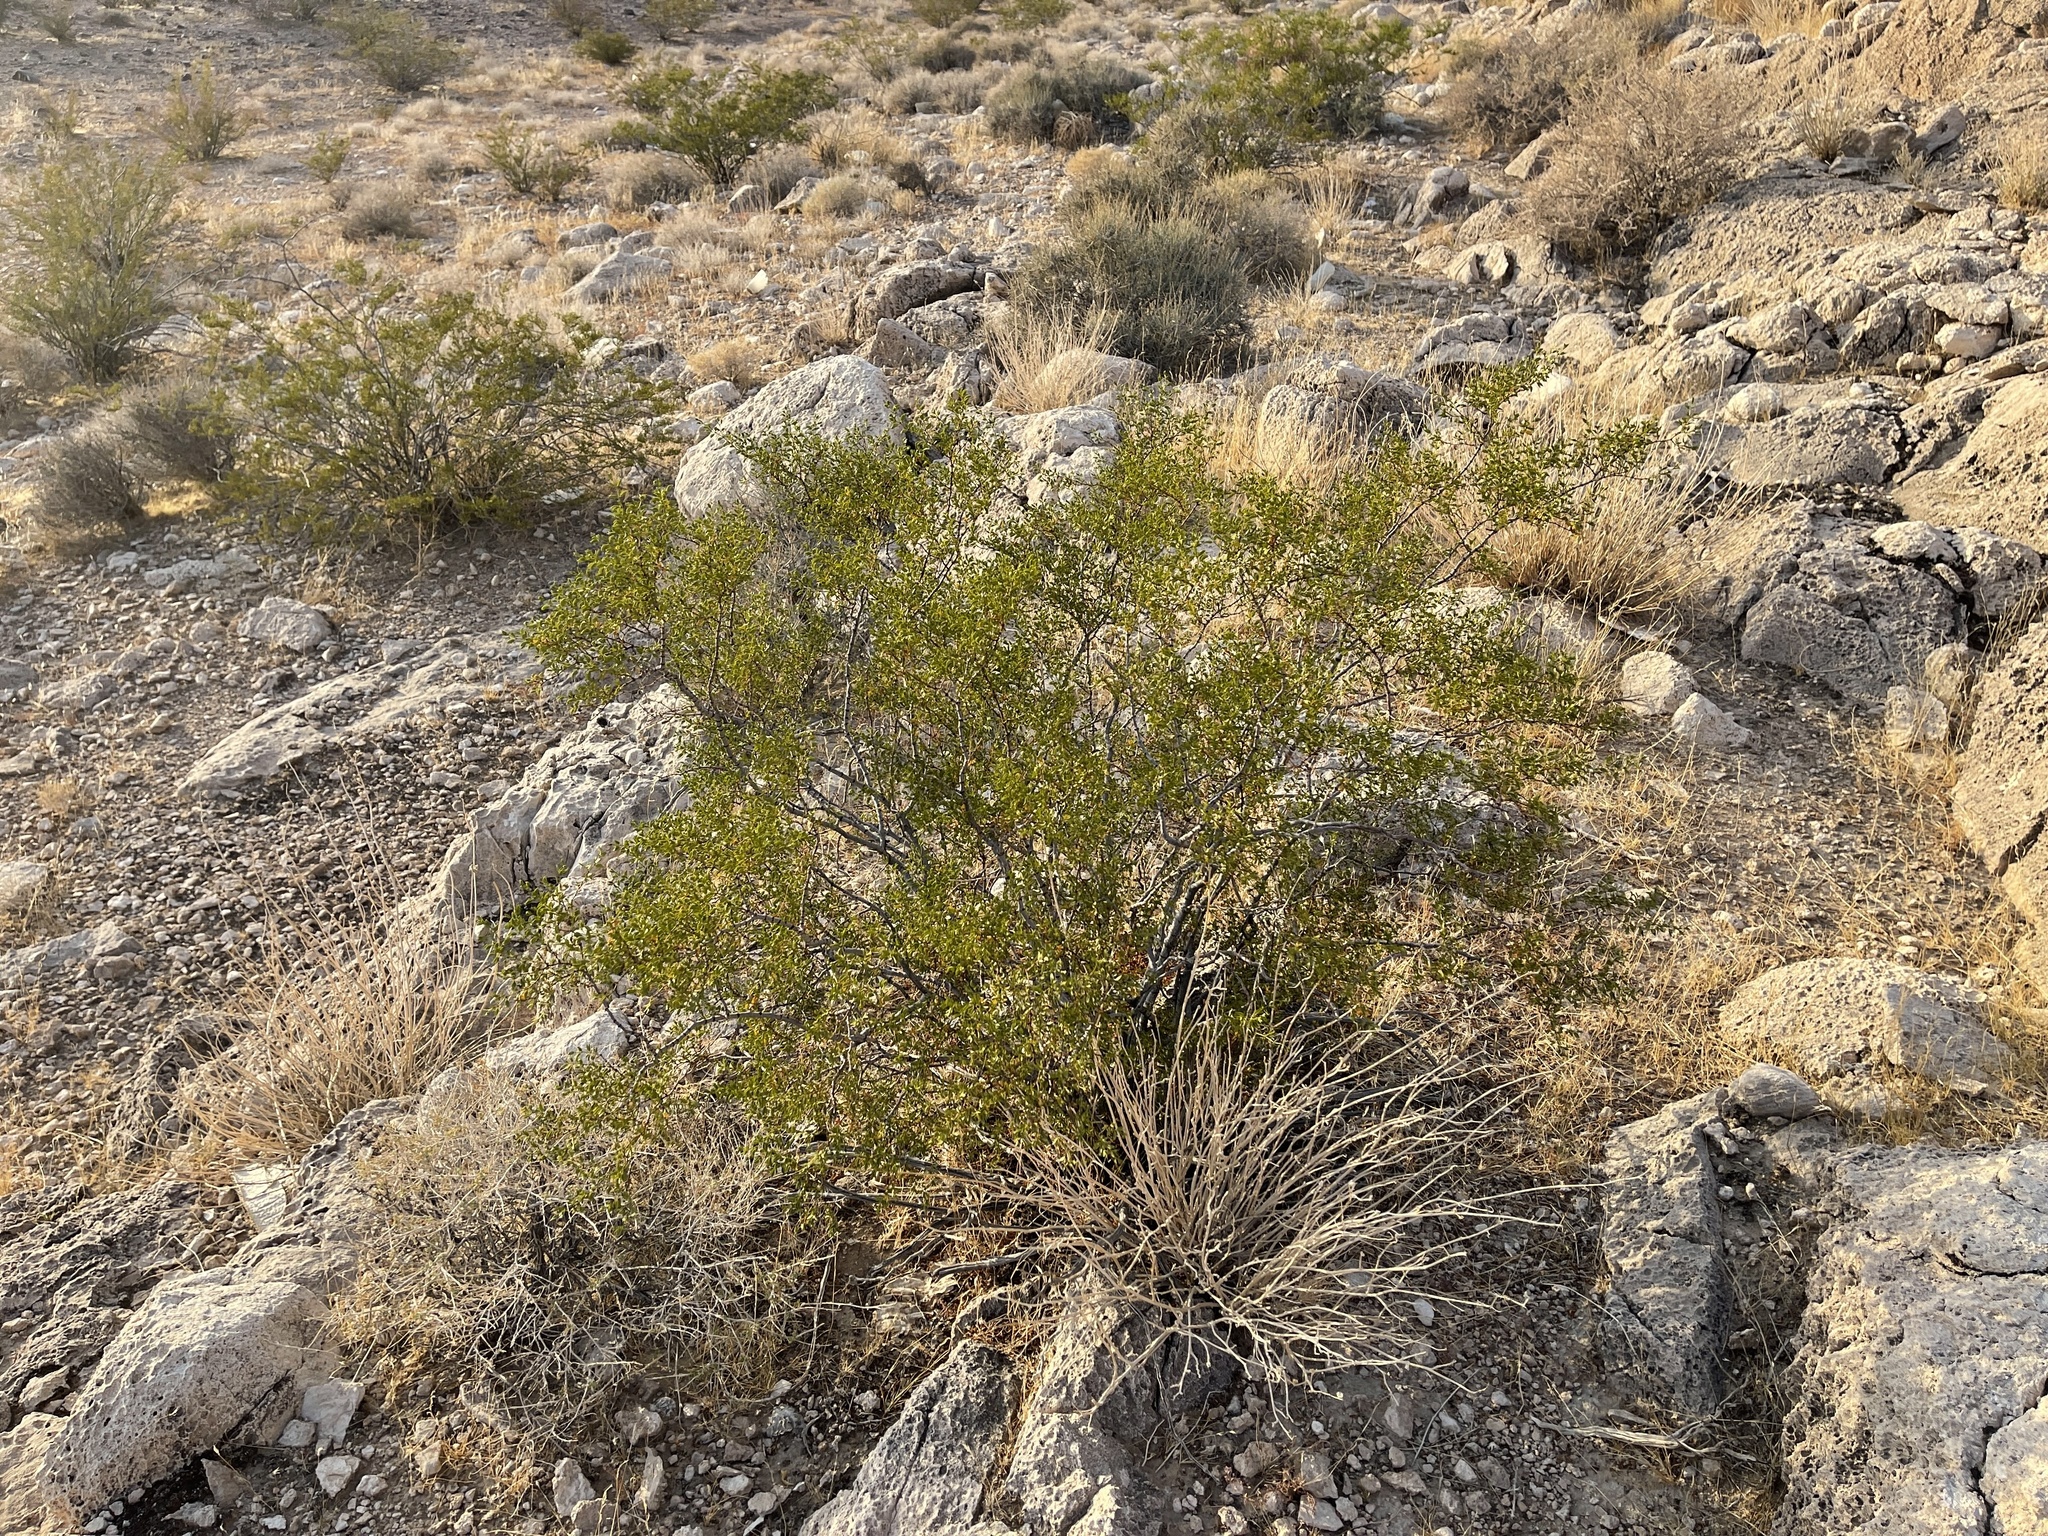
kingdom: Plantae
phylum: Tracheophyta
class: Magnoliopsida
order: Zygophyllales
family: Zygophyllaceae
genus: Larrea
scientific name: Larrea tridentata
